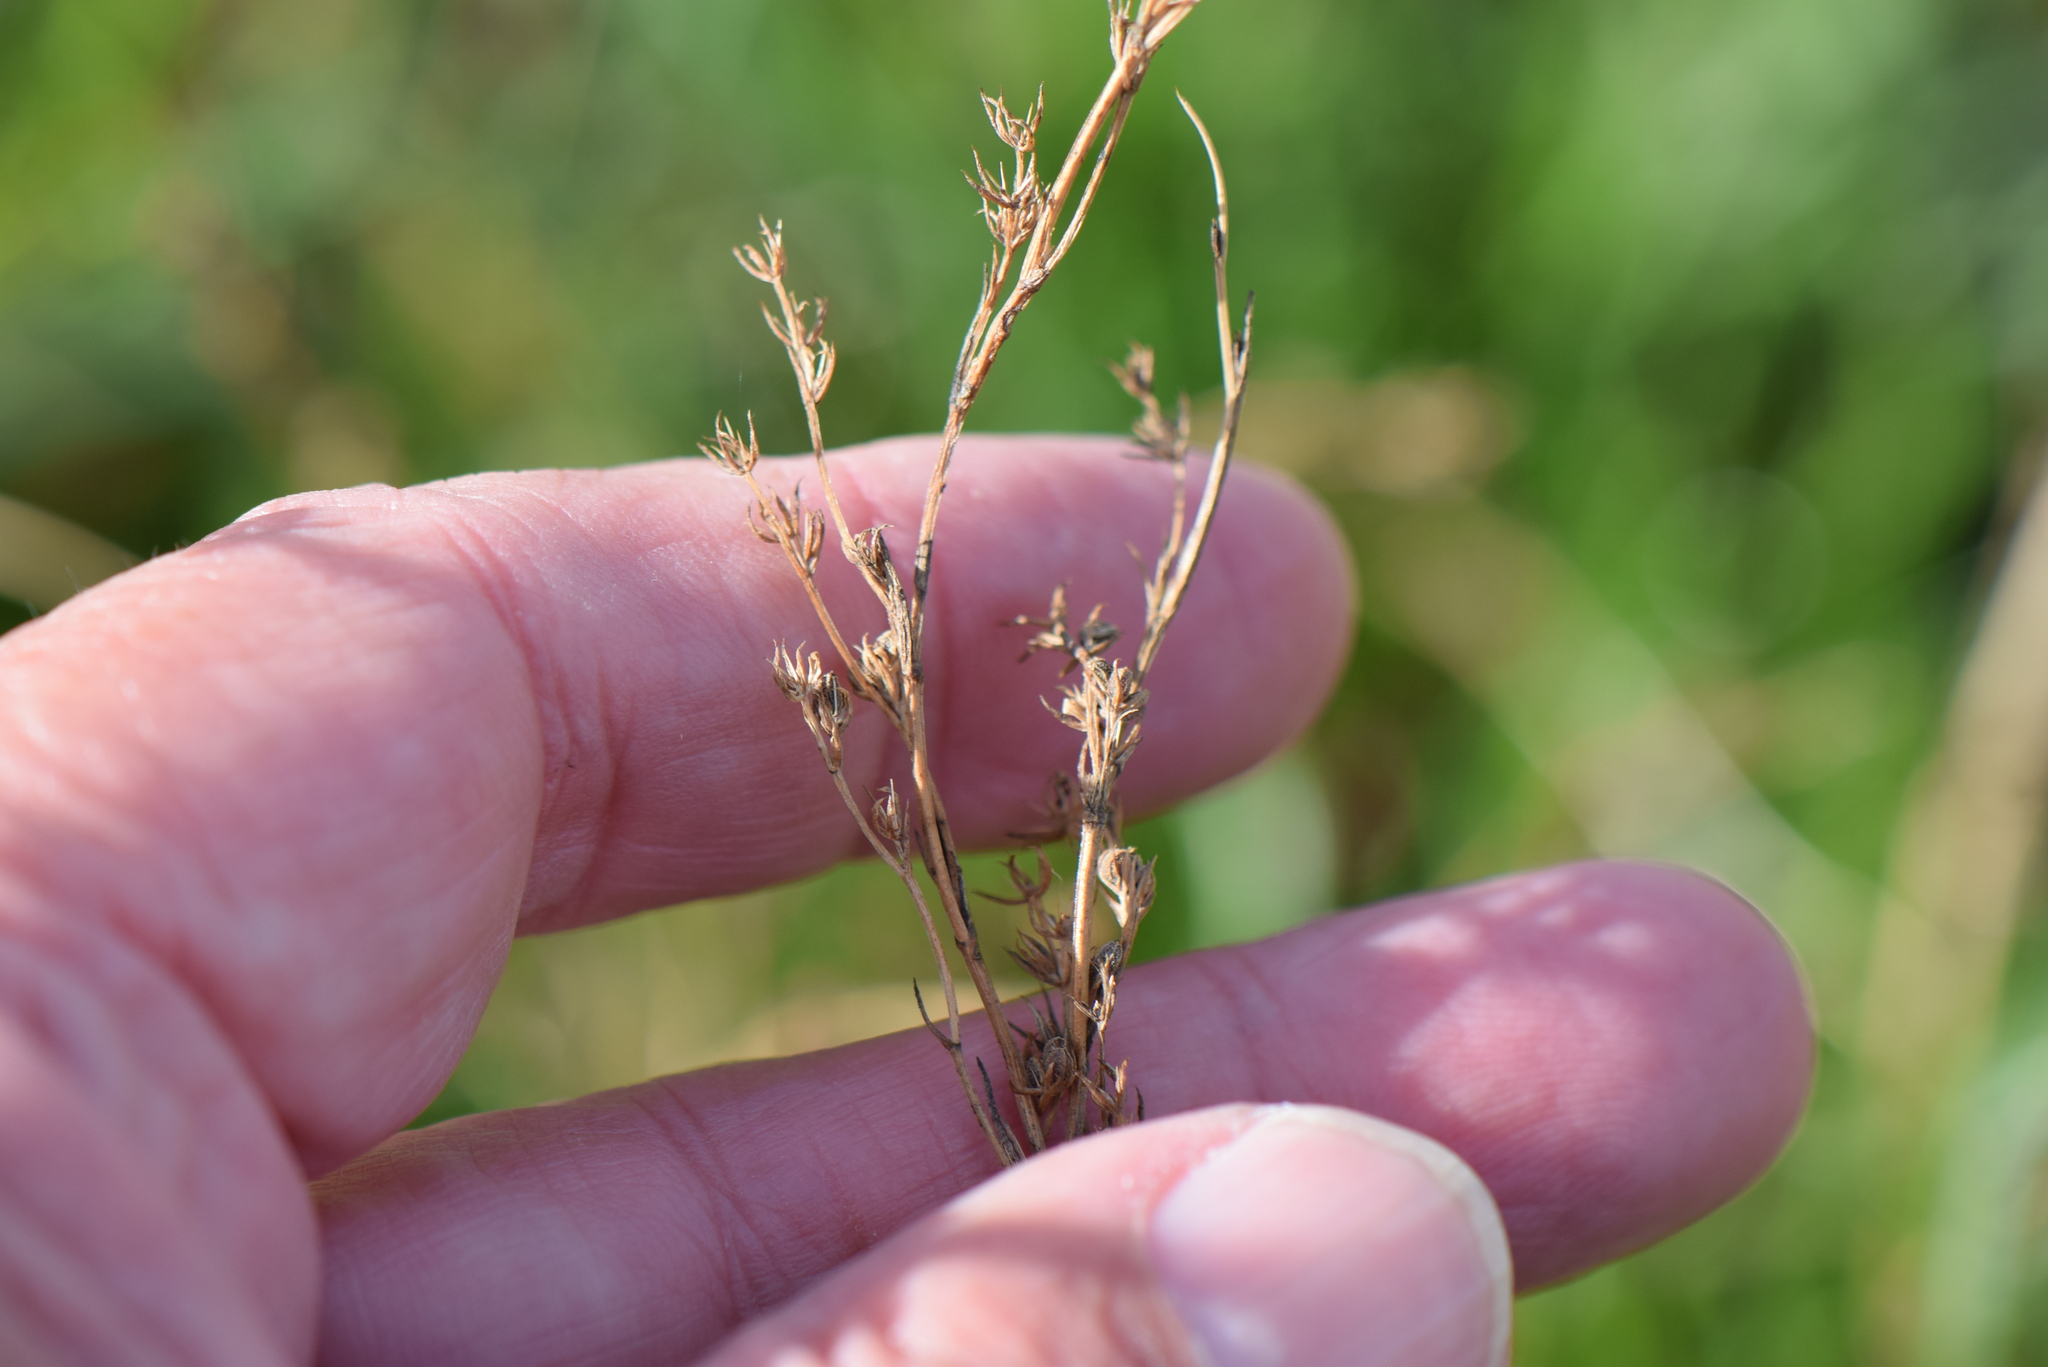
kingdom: Plantae
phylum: Tracheophyta
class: Magnoliopsida
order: Apiales
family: Apiaceae
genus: Bupleurum
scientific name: Bupleurum tenuissimum
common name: Slender hare's-ear
